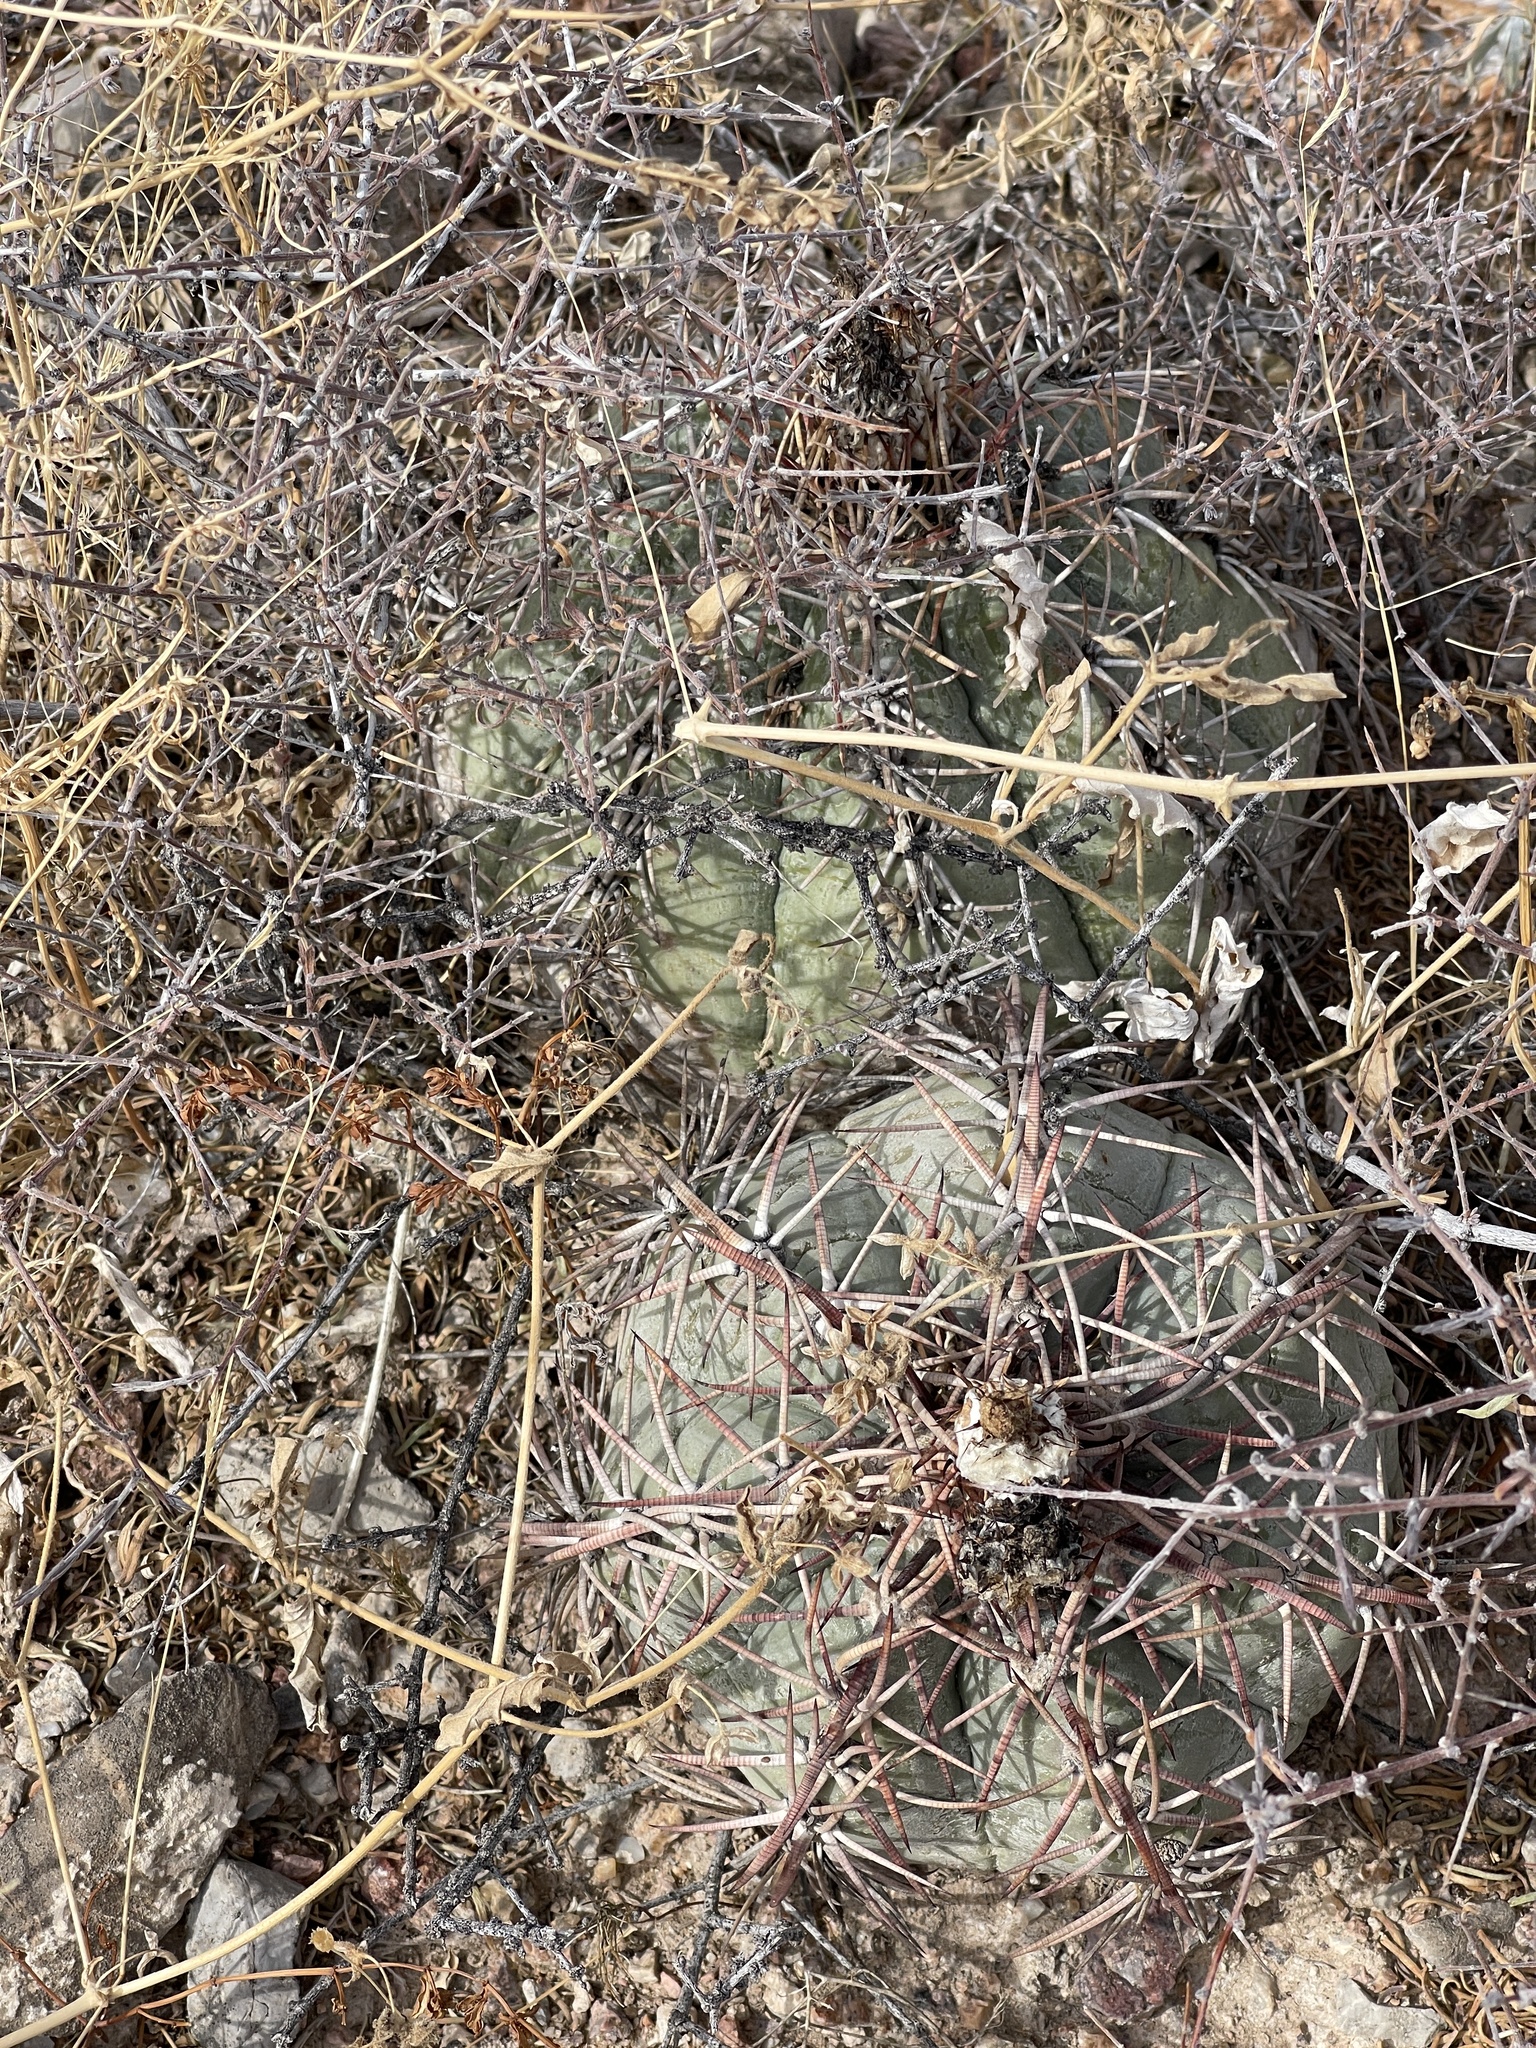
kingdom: Plantae
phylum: Tracheophyta
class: Magnoliopsida
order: Caryophyllales
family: Cactaceae
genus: Echinocactus
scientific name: Echinocactus horizonthalonius
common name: Devilshead
